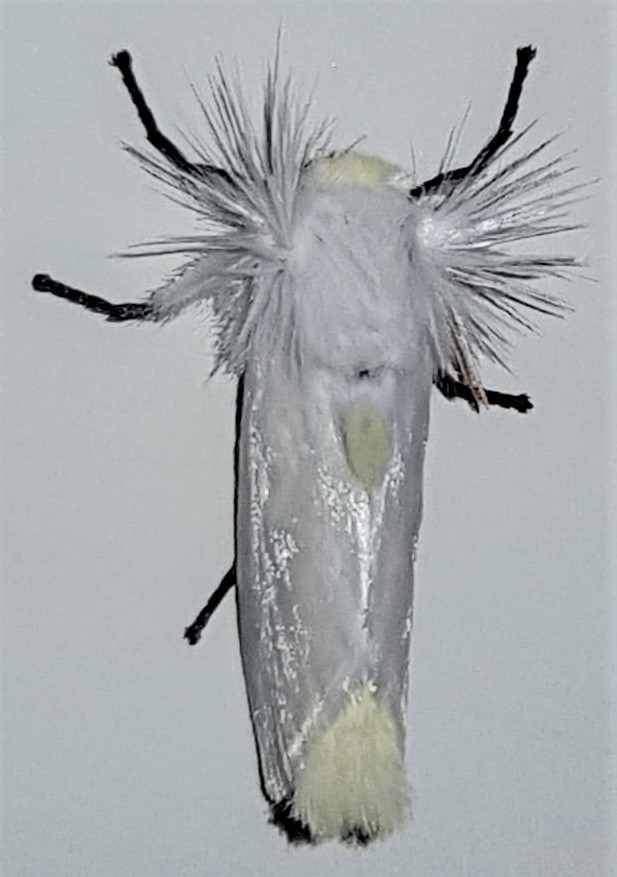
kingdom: Animalia
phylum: Arthropoda
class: Insecta
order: Lepidoptera
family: Megalopygidae
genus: Norape
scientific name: Norape virgo
